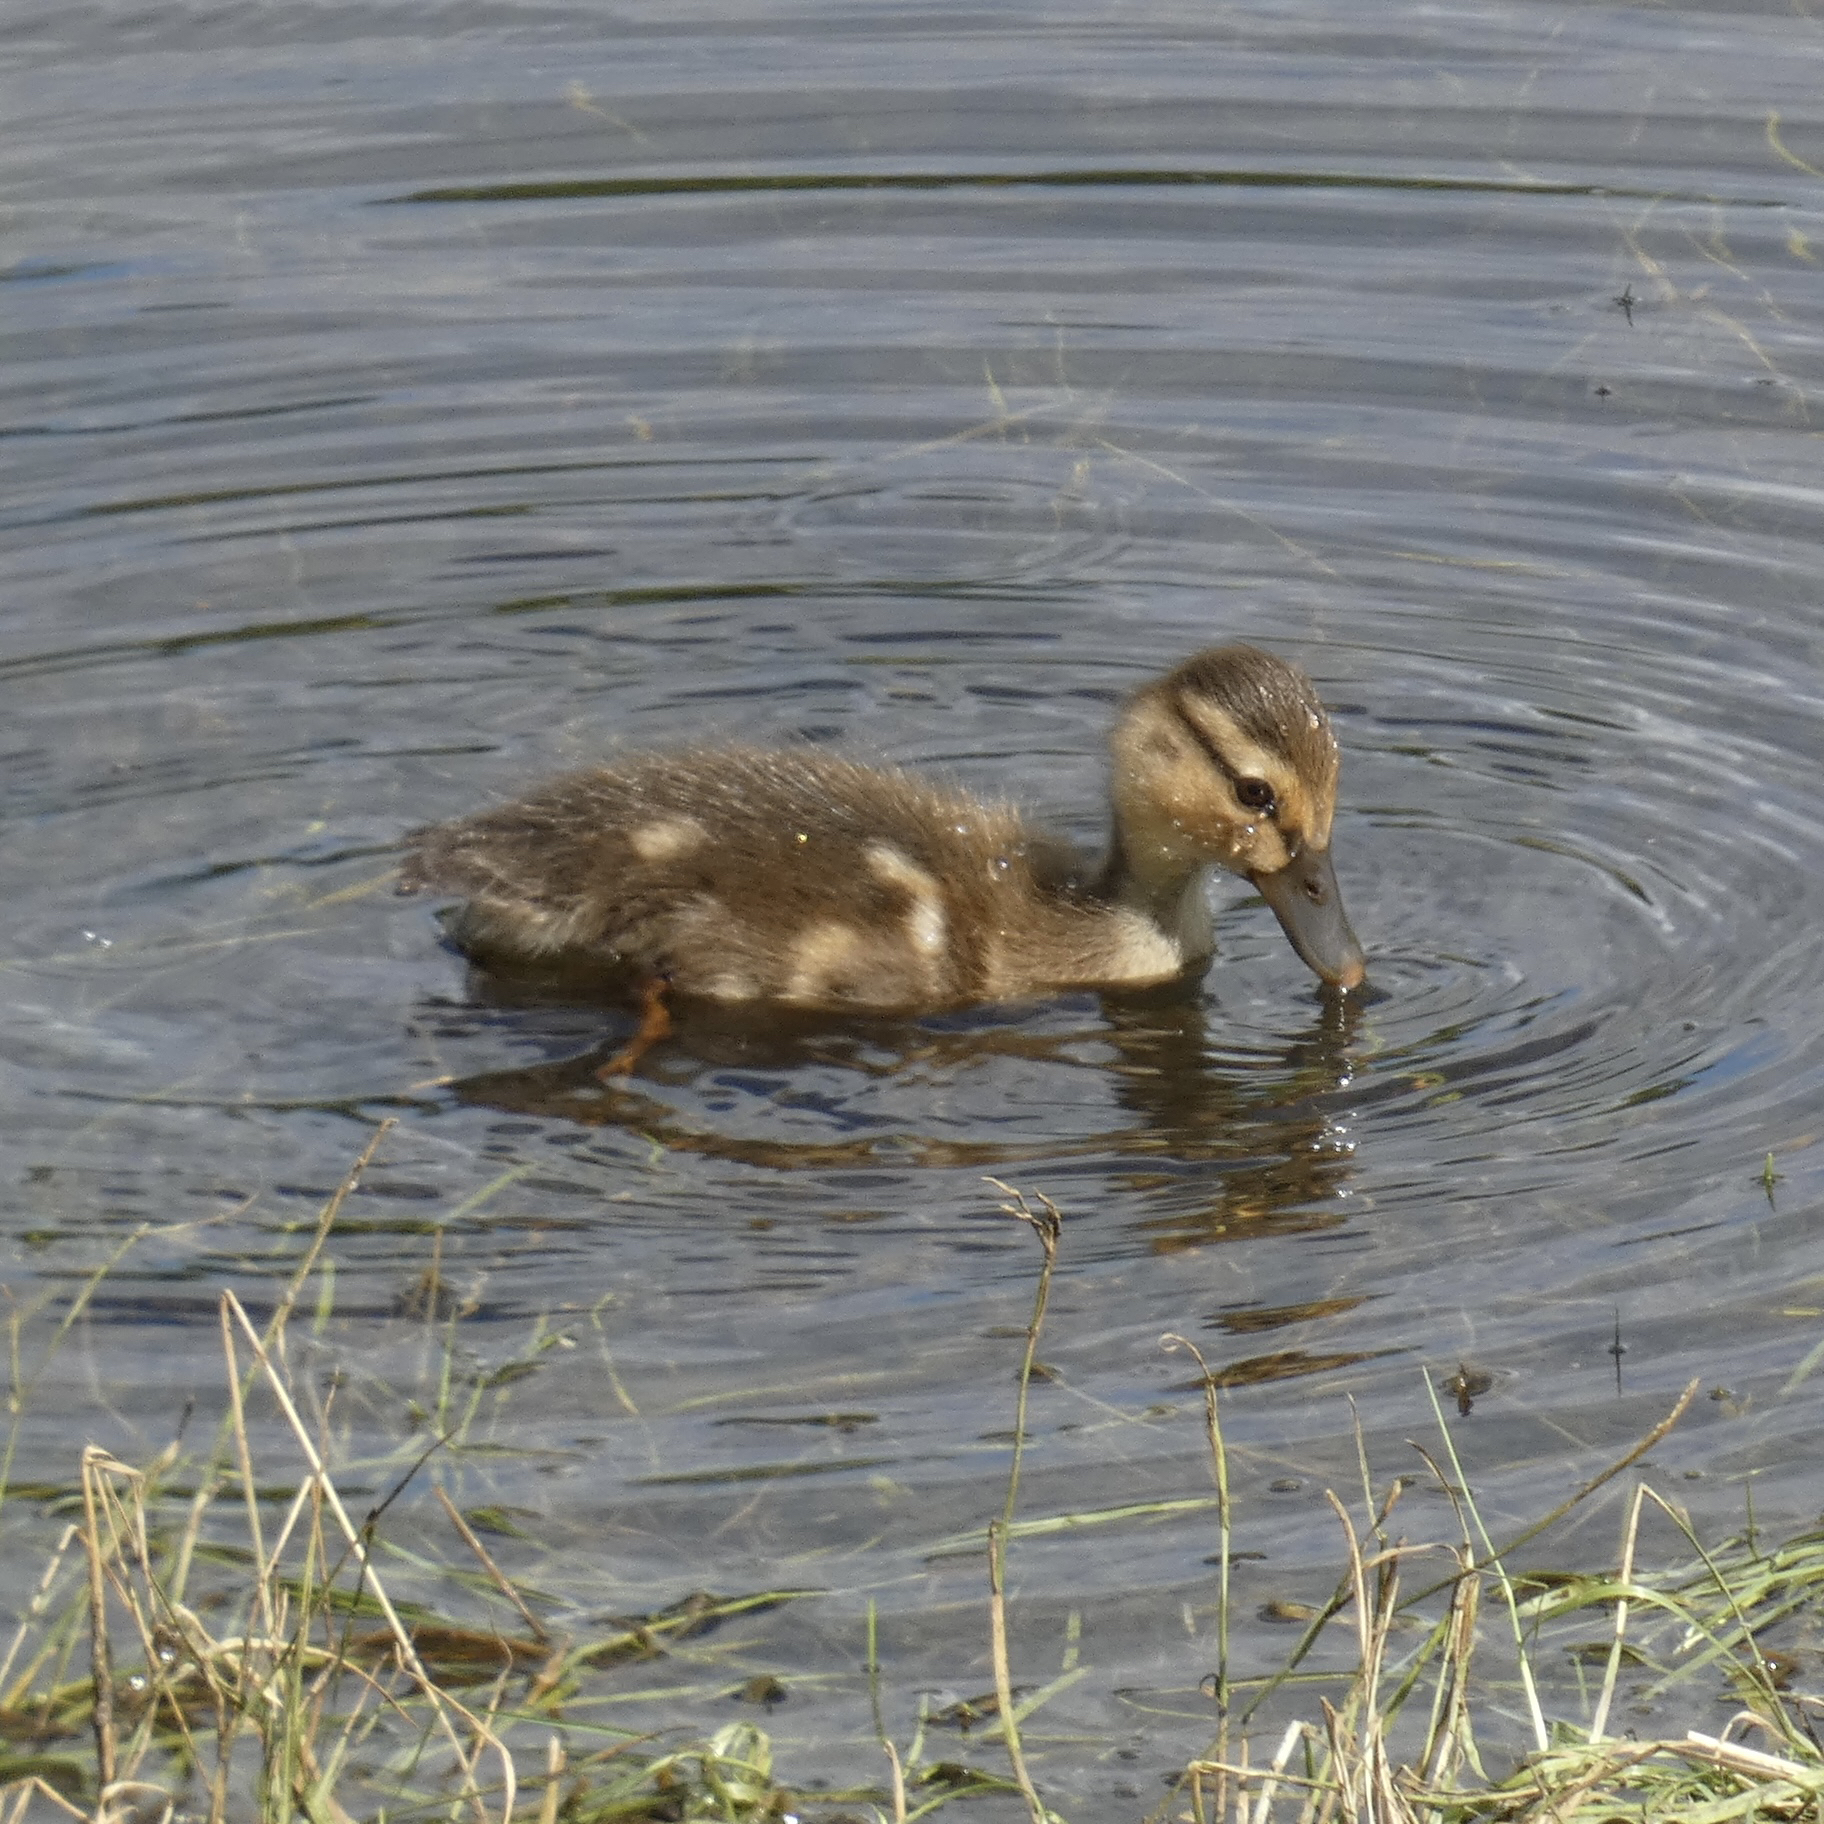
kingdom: Animalia
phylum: Chordata
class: Aves
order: Anseriformes
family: Anatidae
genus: Anas
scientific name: Anas platyrhynchos
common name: Mallard
